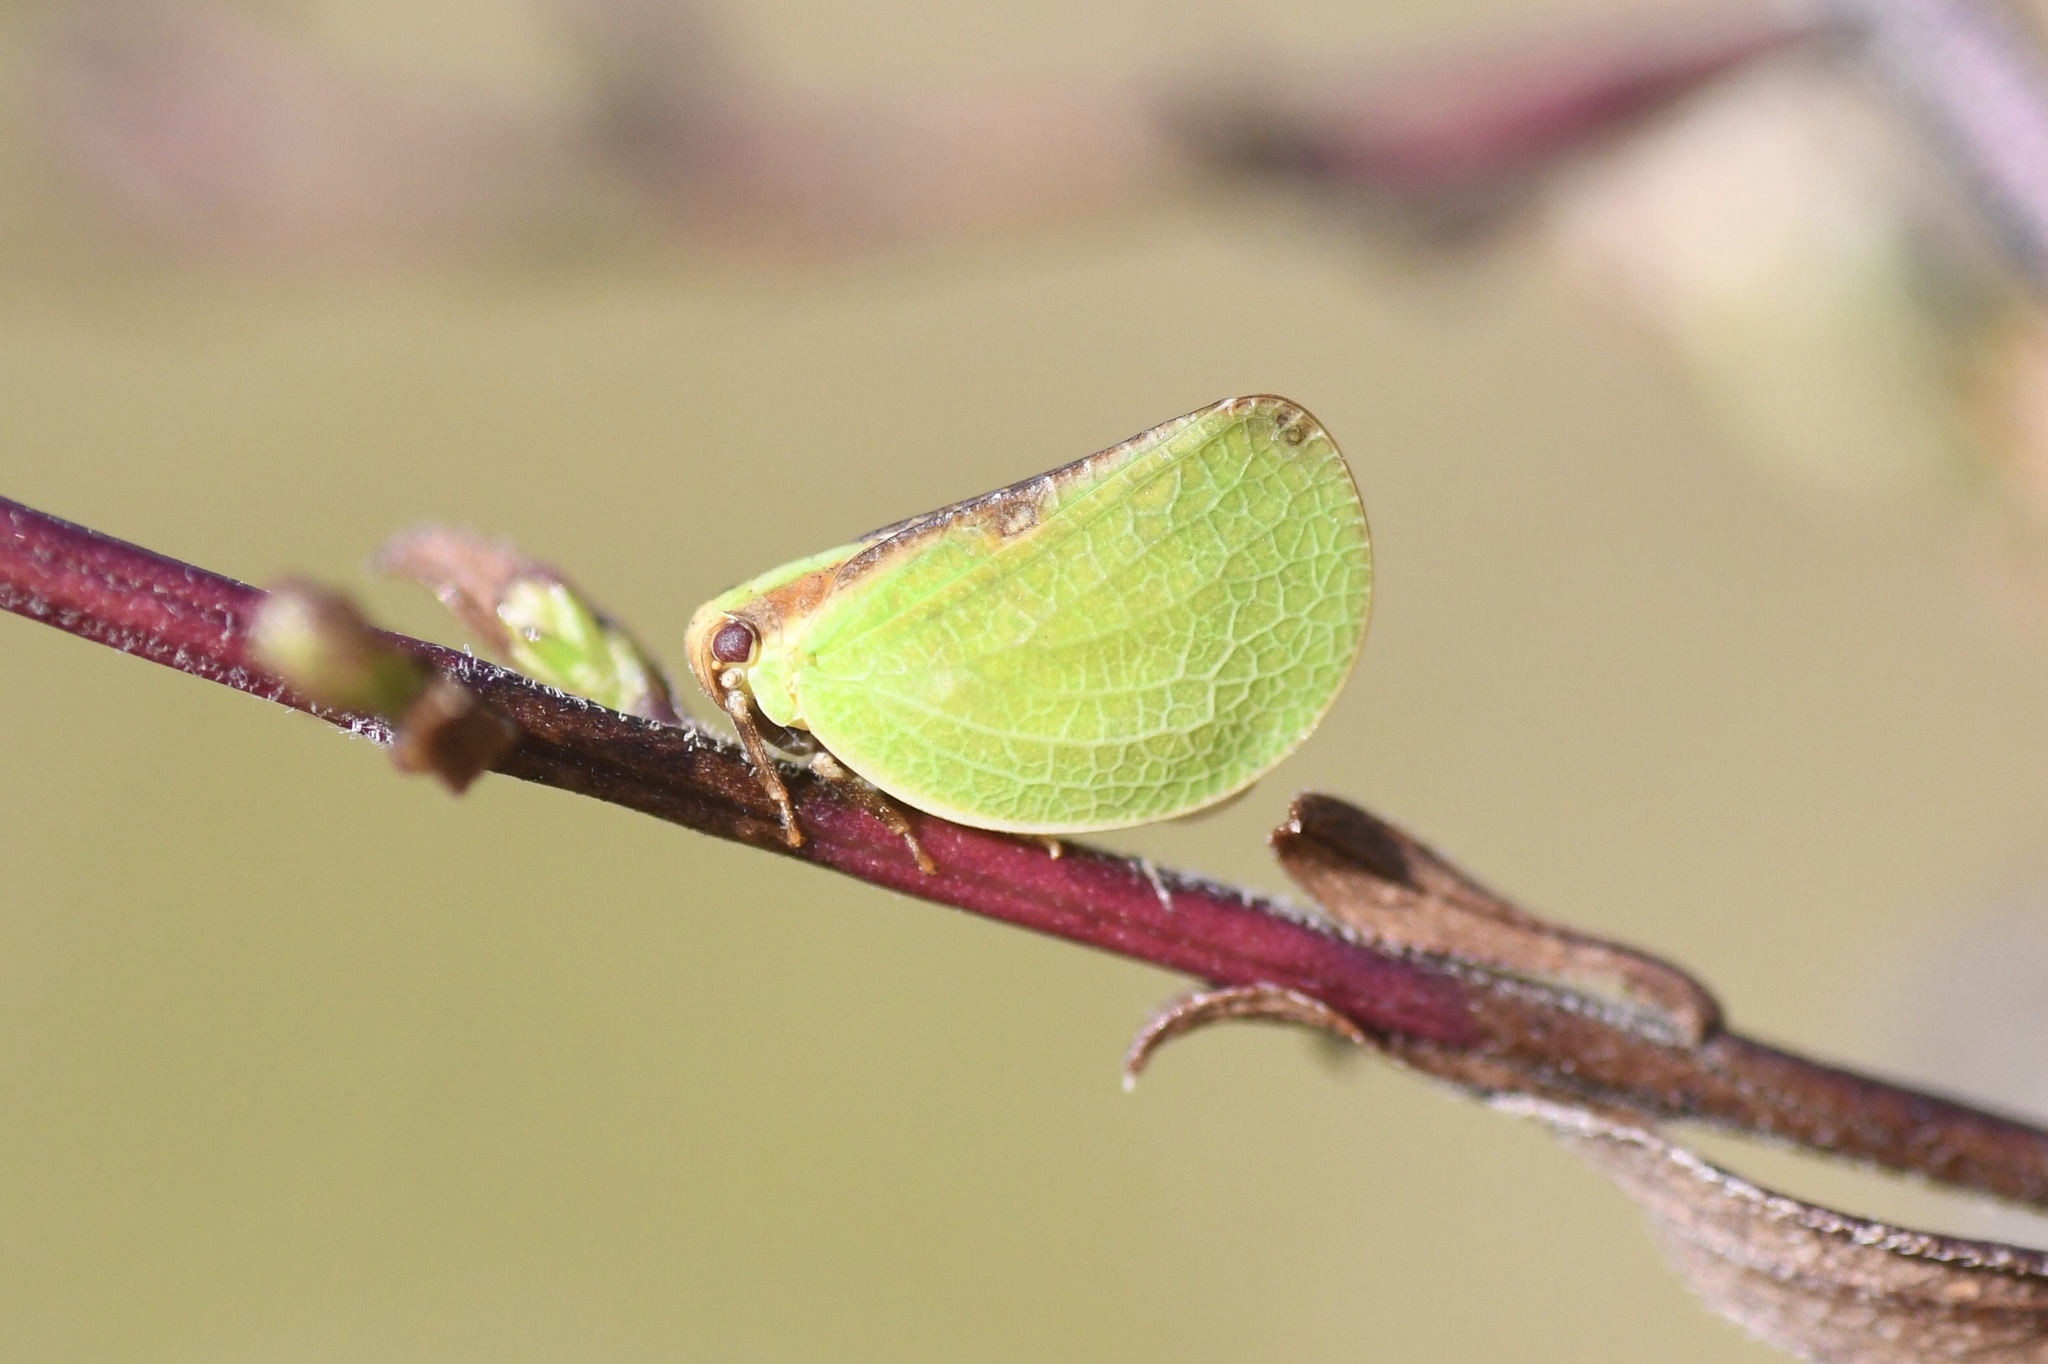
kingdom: Animalia
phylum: Arthropoda
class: Insecta
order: Hemiptera
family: Acanaloniidae
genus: Acanalonia
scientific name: Acanalonia bivittata
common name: Two-striped planthopper
